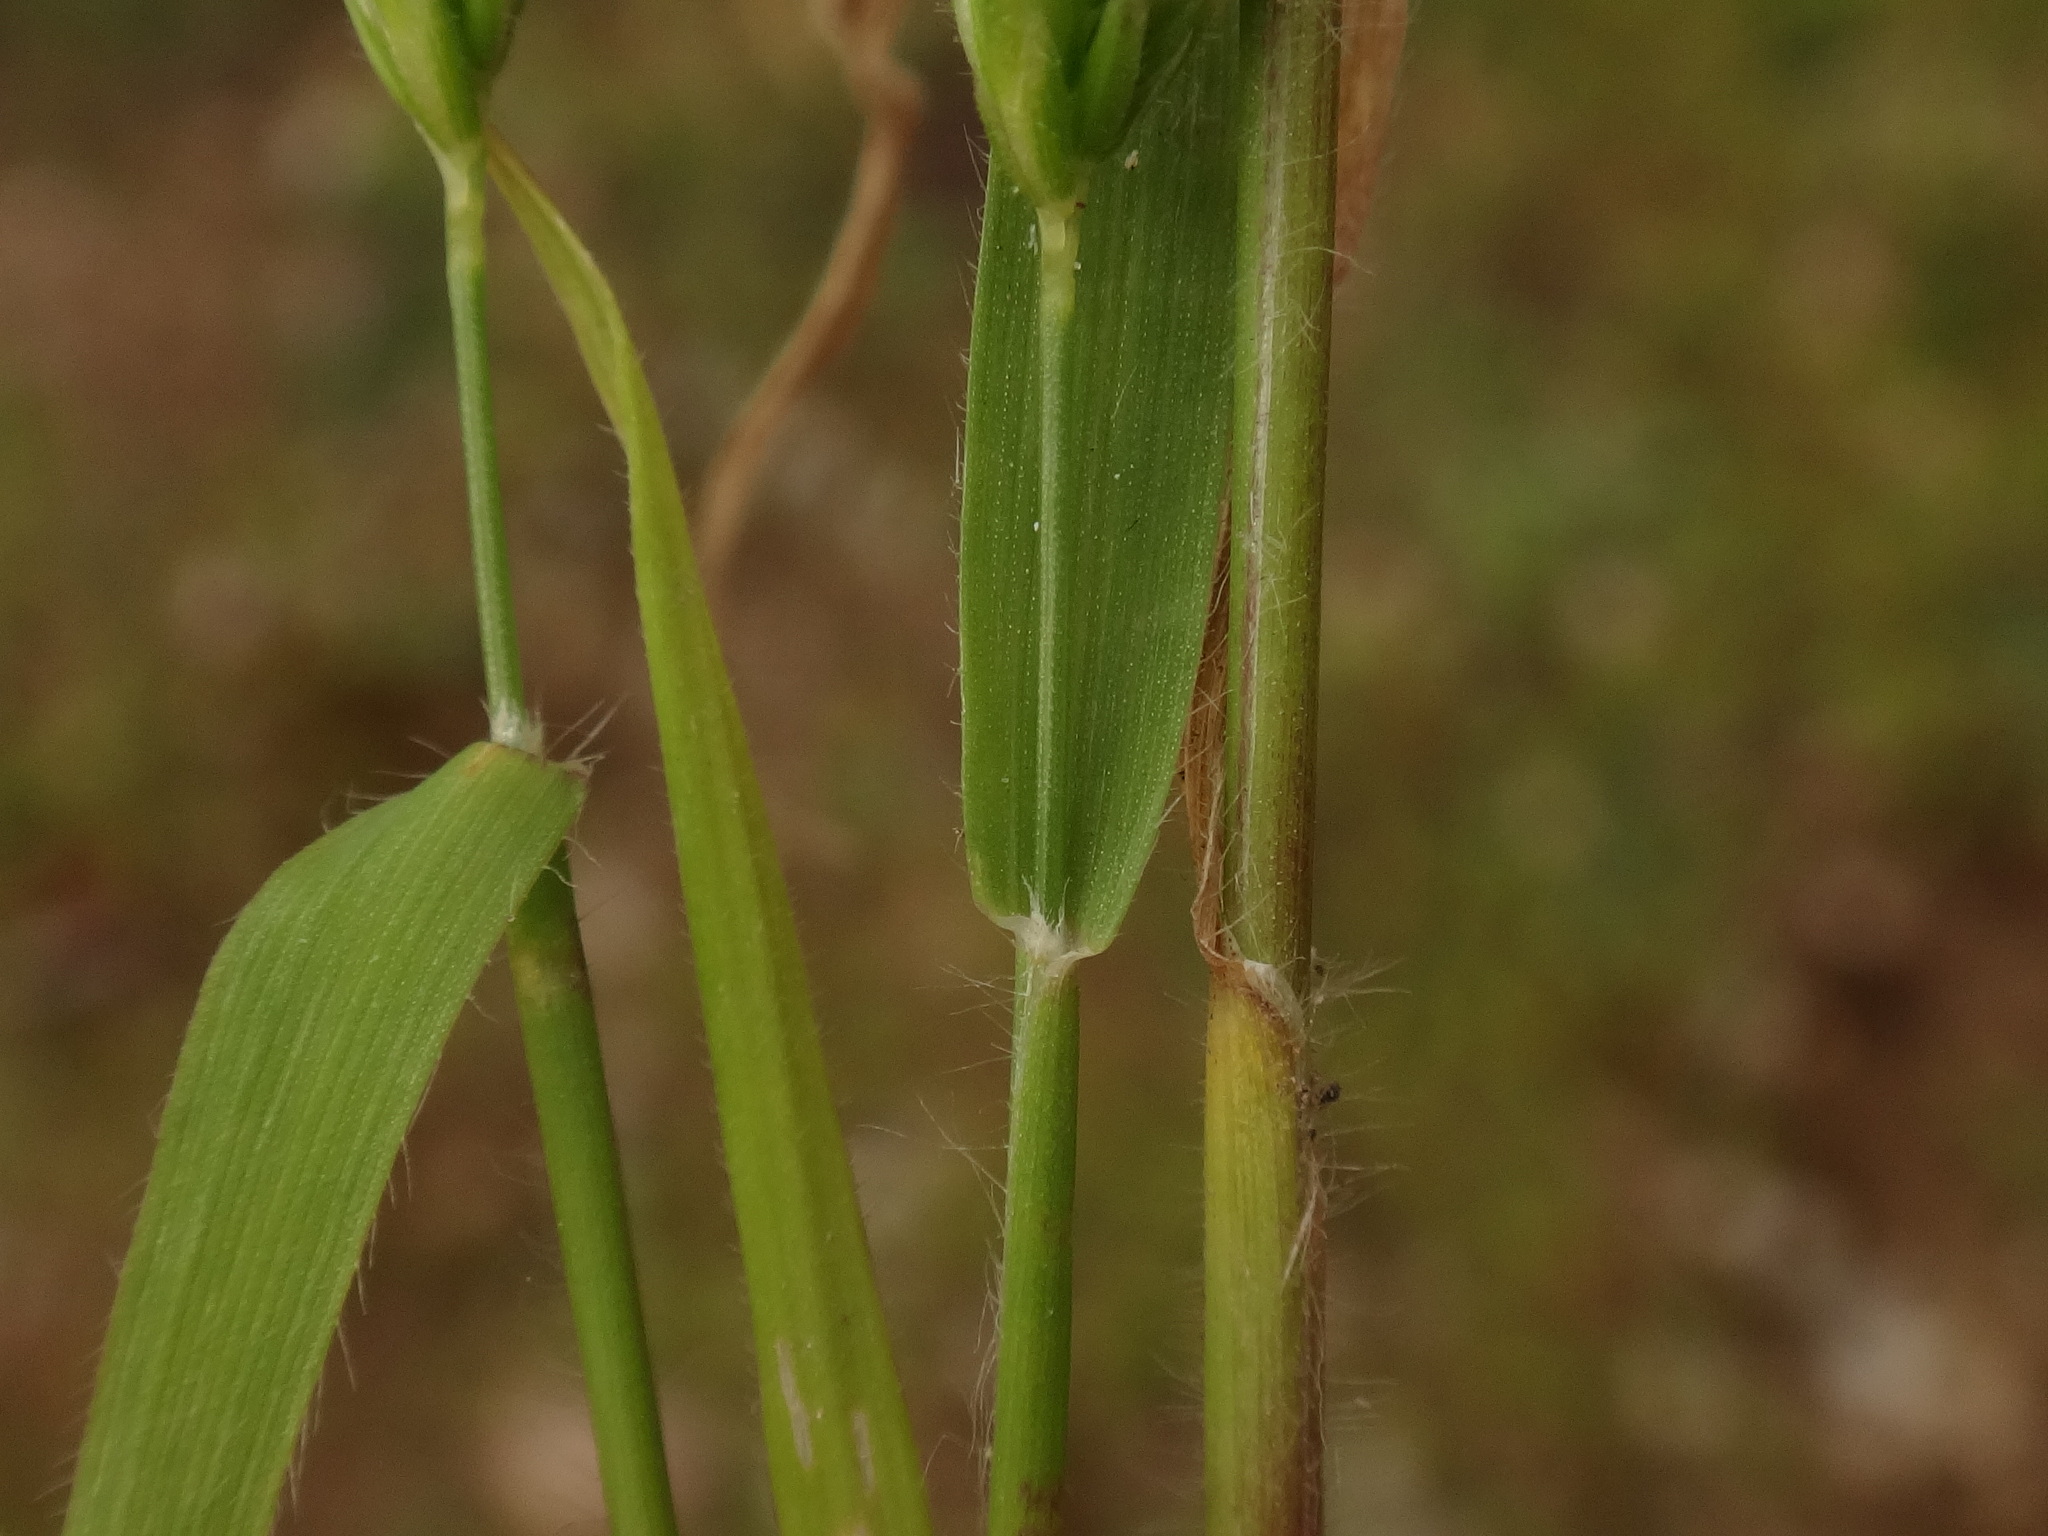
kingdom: Plantae
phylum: Tracheophyta
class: Liliopsida
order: Poales
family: Poaceae
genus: Rostraria
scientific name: Rostraria cristata
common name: Mediterranean hair-grass
